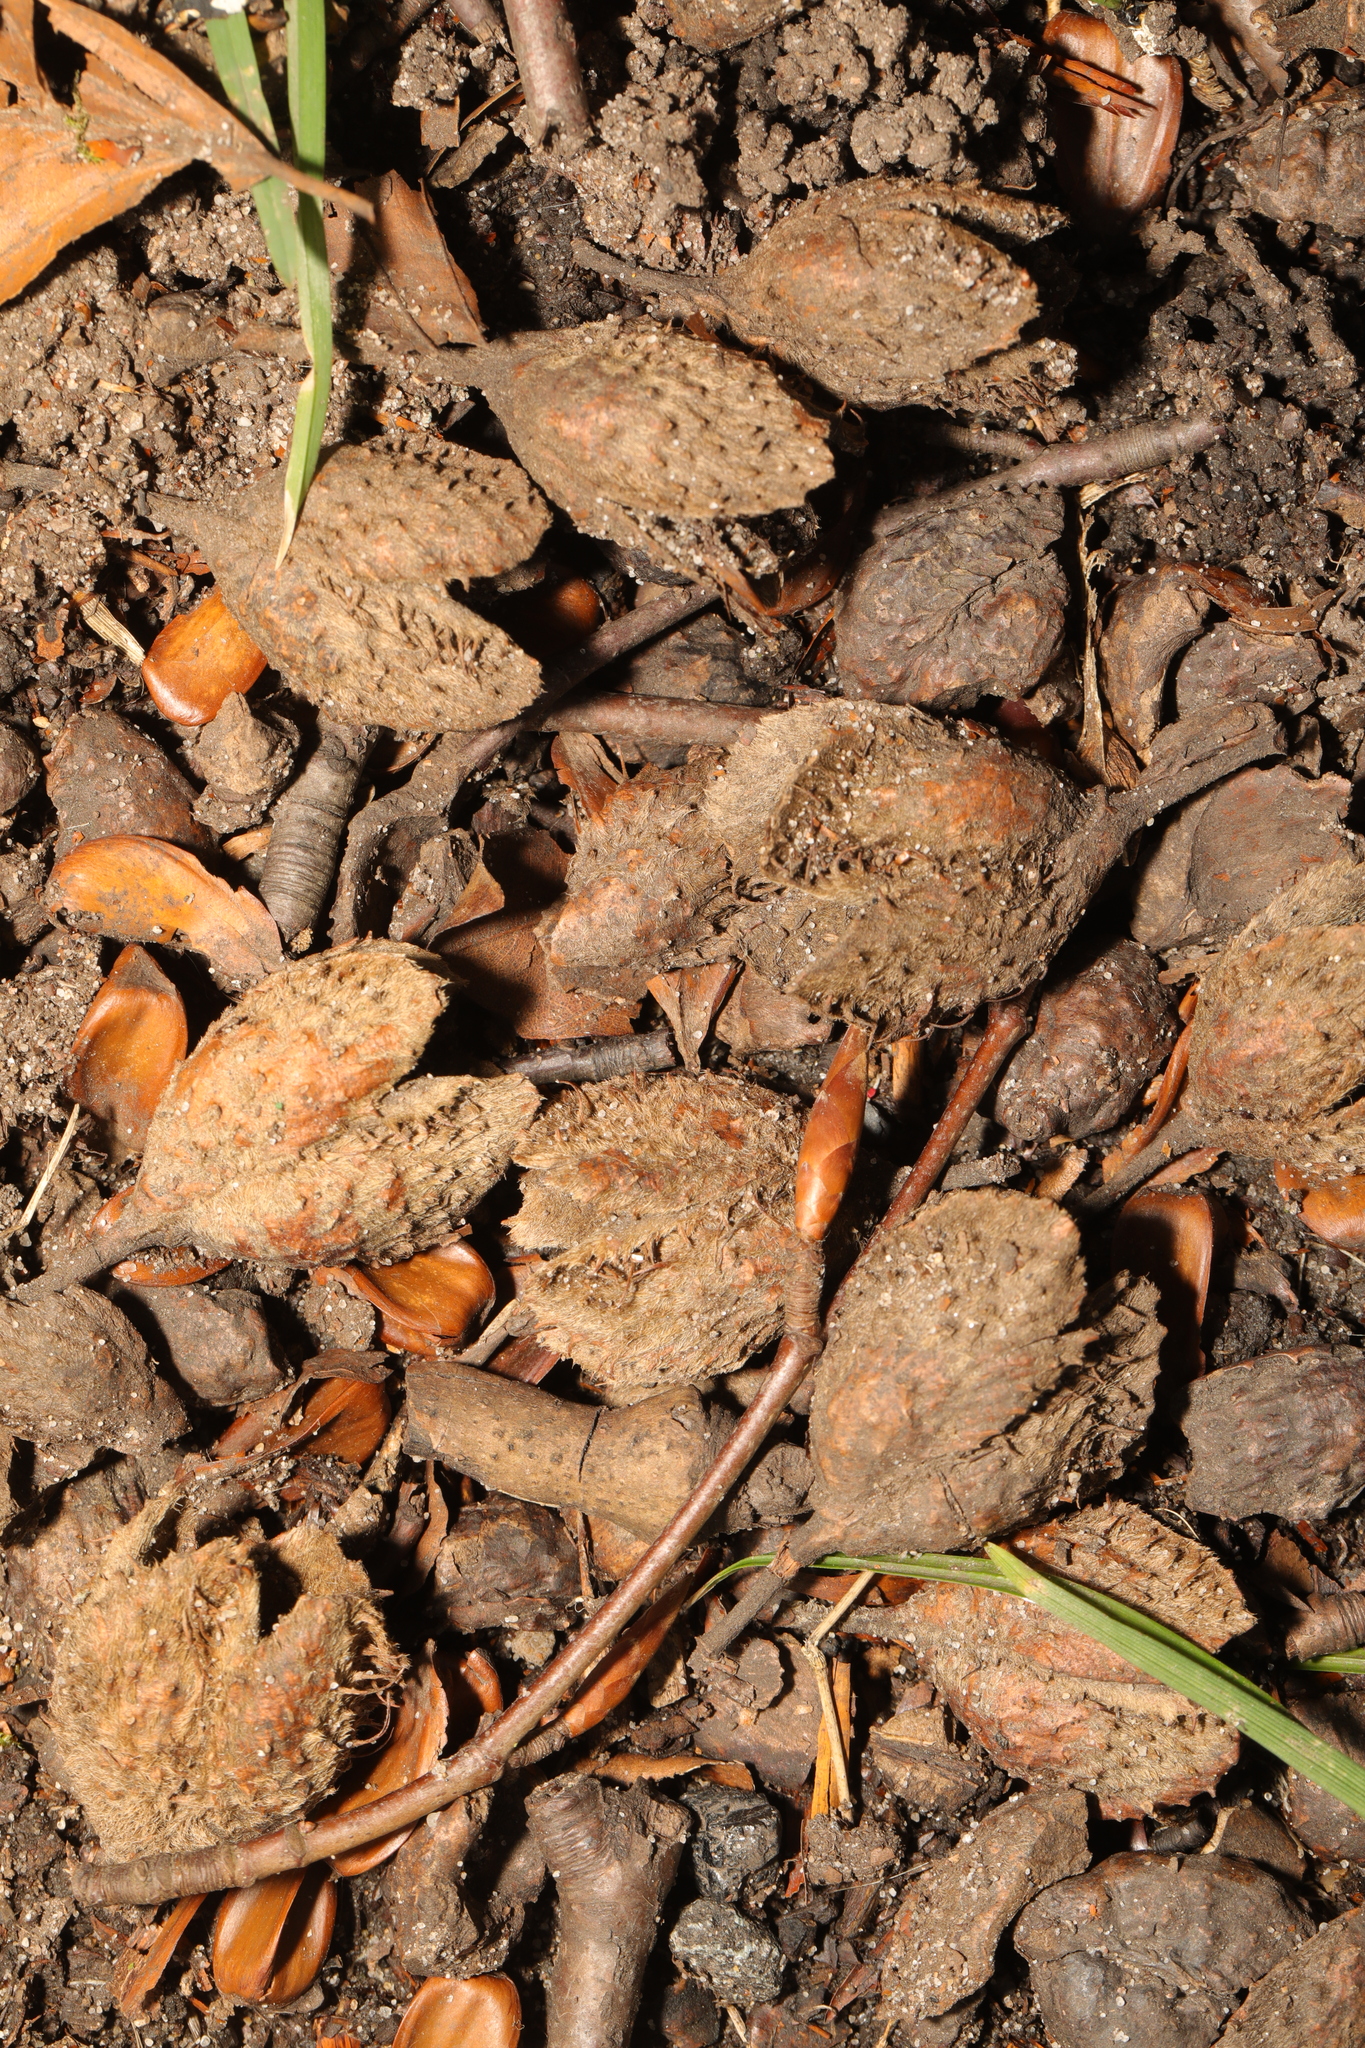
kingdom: Plantae
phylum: Tracheophyta
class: Magnoliopsida
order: Fagales
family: Fagaceae
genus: Fagus
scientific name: Fagus sylvatica
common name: Beech
